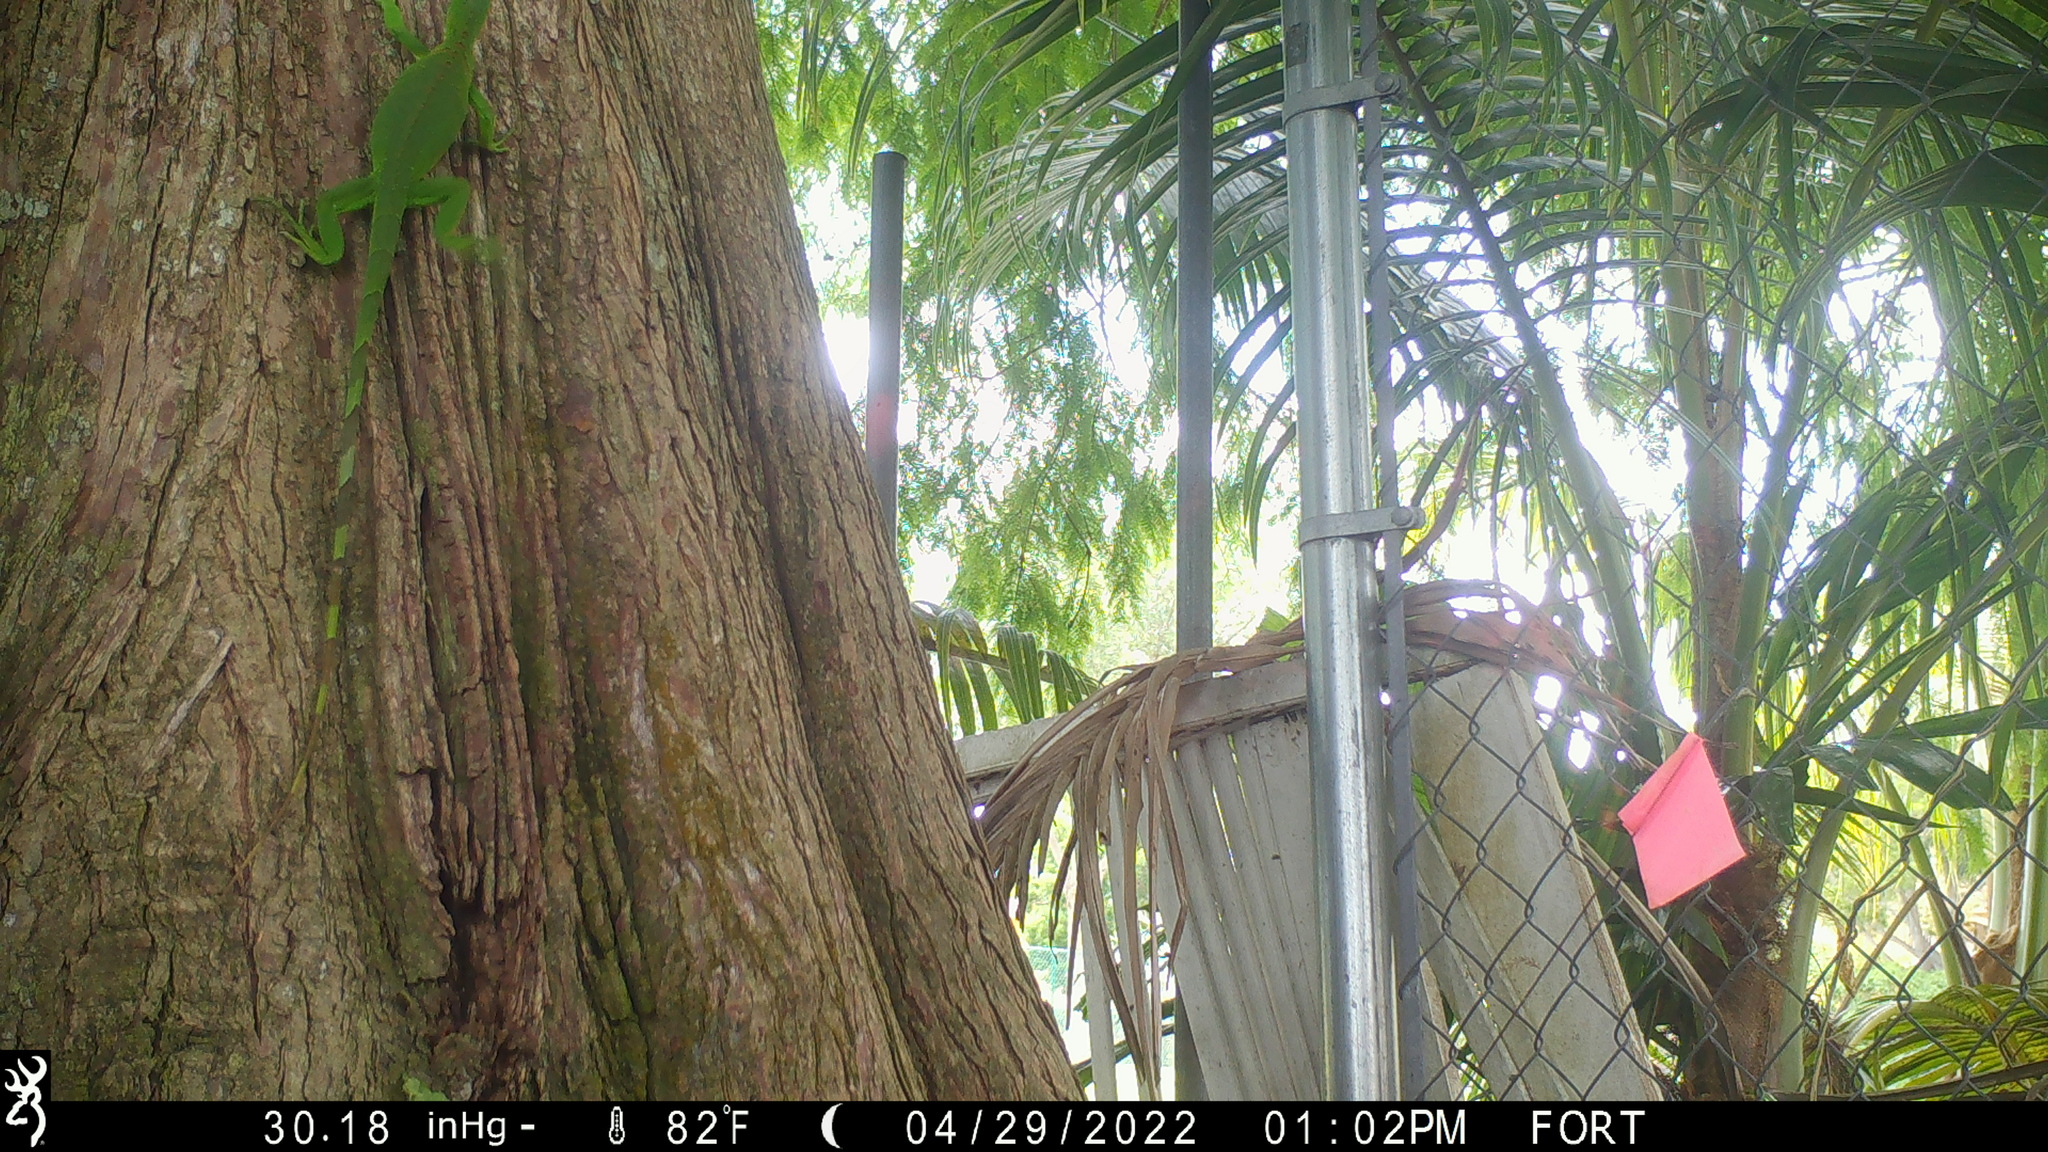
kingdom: Animalia
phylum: Chordata
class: Squamata
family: Iguanidae
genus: Iguana
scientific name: Iguana iguana
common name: Green iguana
